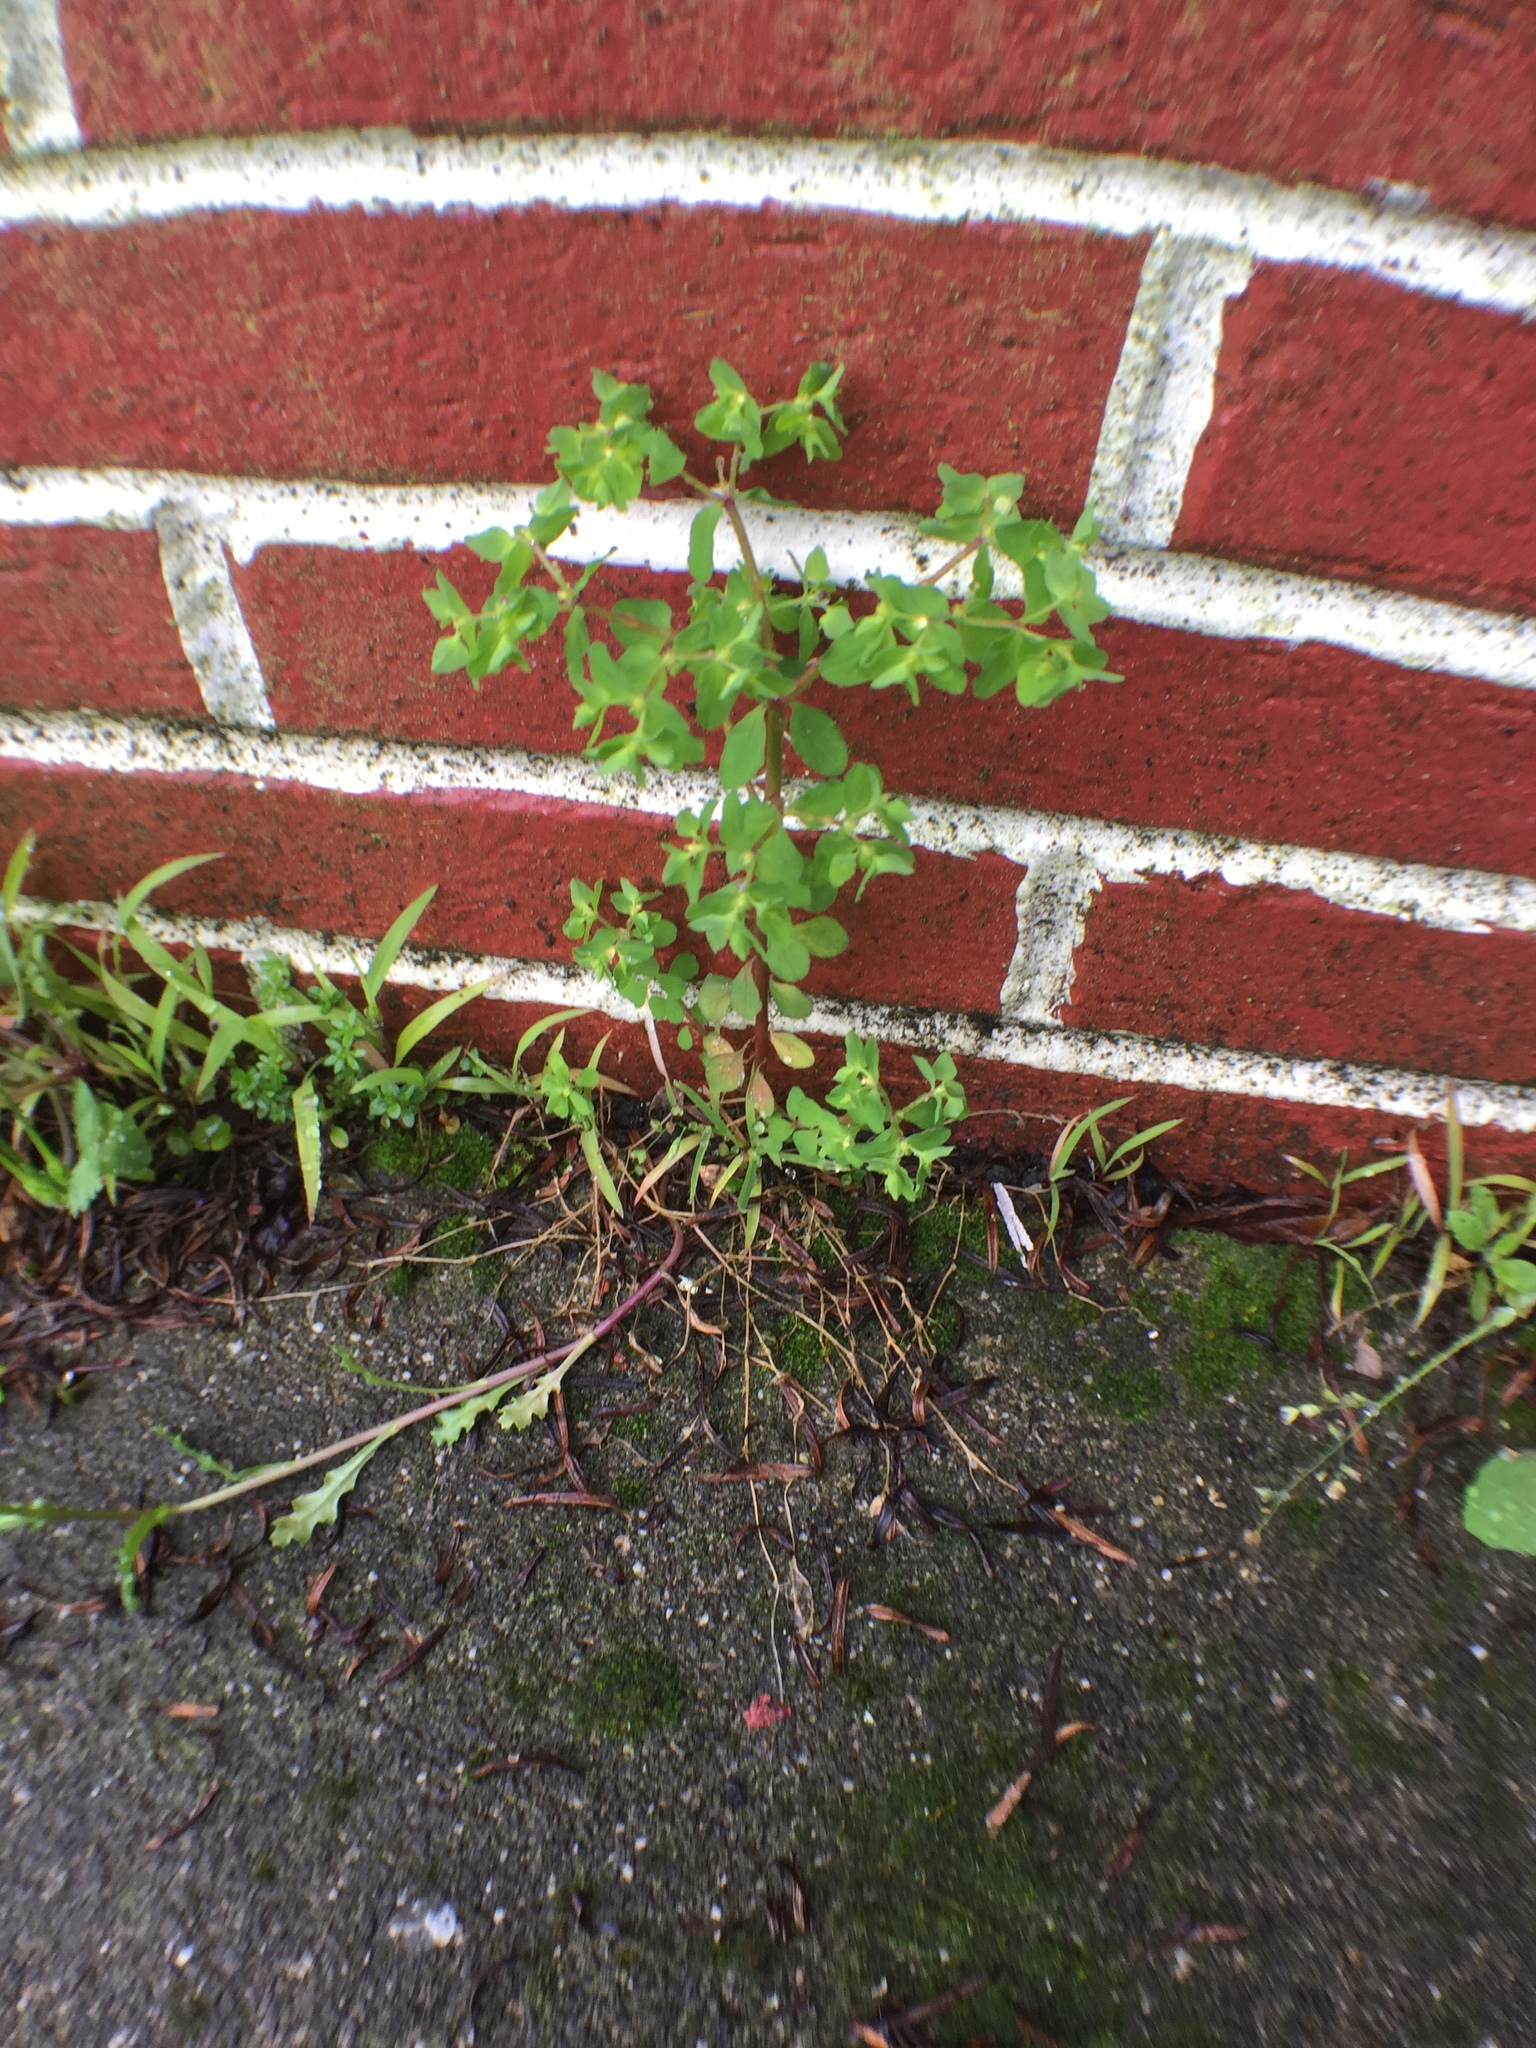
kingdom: Plantae
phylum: Tracheophyta
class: Magnoliopsida
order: Malpighiales
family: Euphorbiaceae
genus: Euphorbia
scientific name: Euphorbia peplus
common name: Petty spurge
